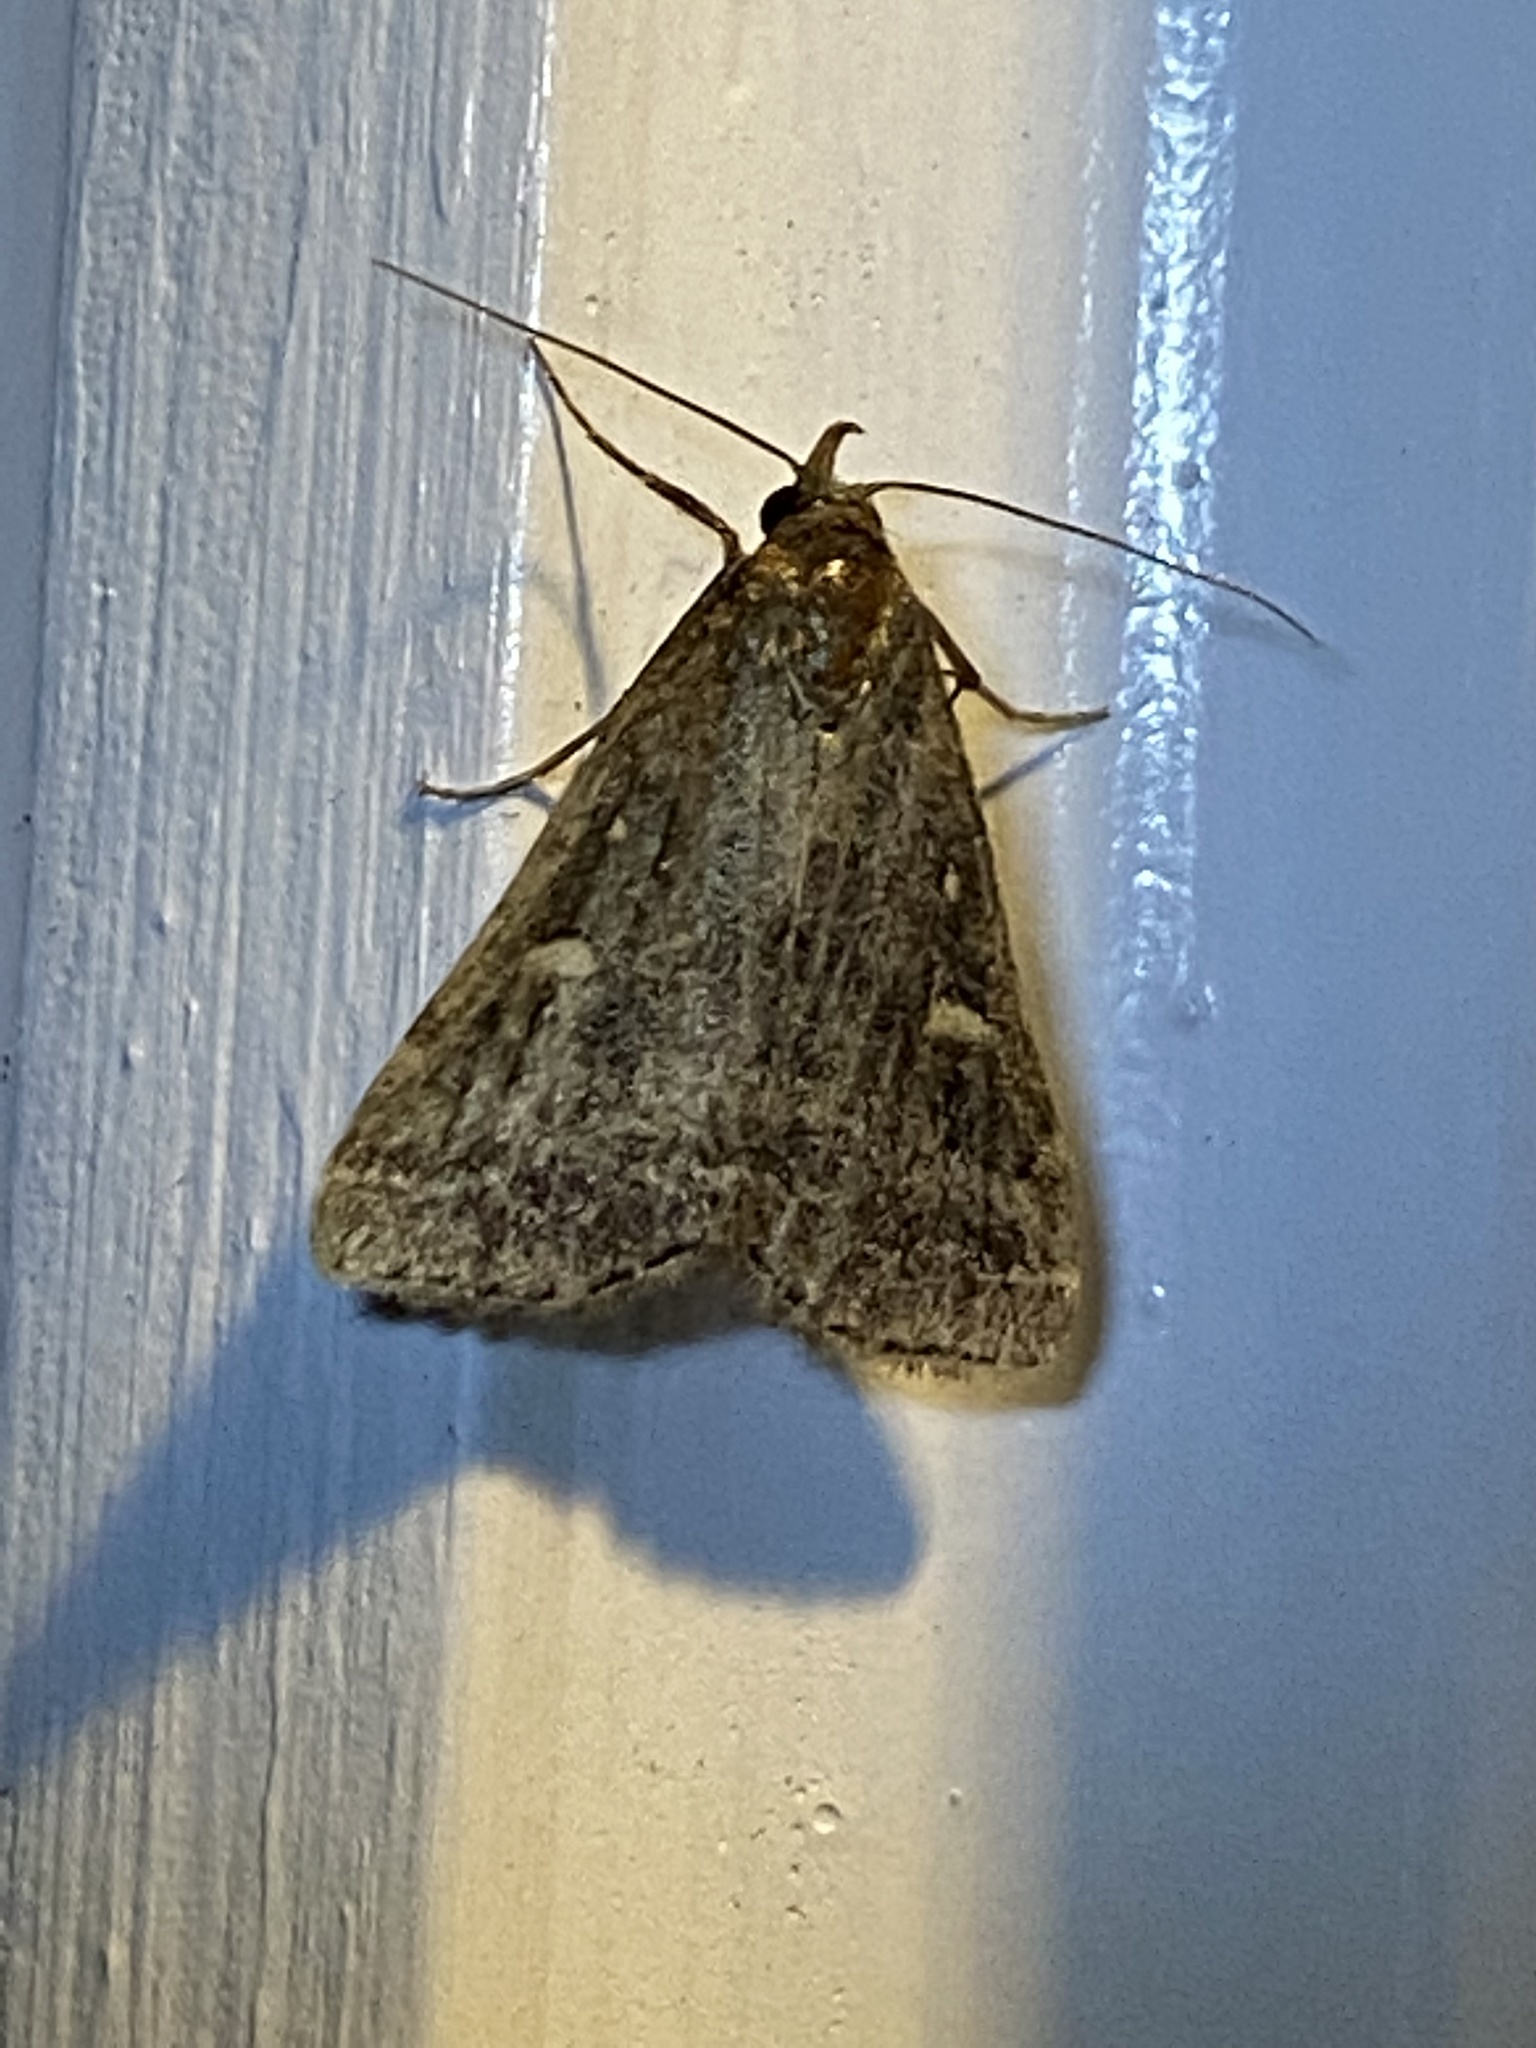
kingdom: Animalia
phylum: Arthropoda
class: Insecta
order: Lepidoptera
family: Erebidae
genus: Tetanolita
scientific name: Tetanolita mynesalis
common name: Smoky tetanolita moth
